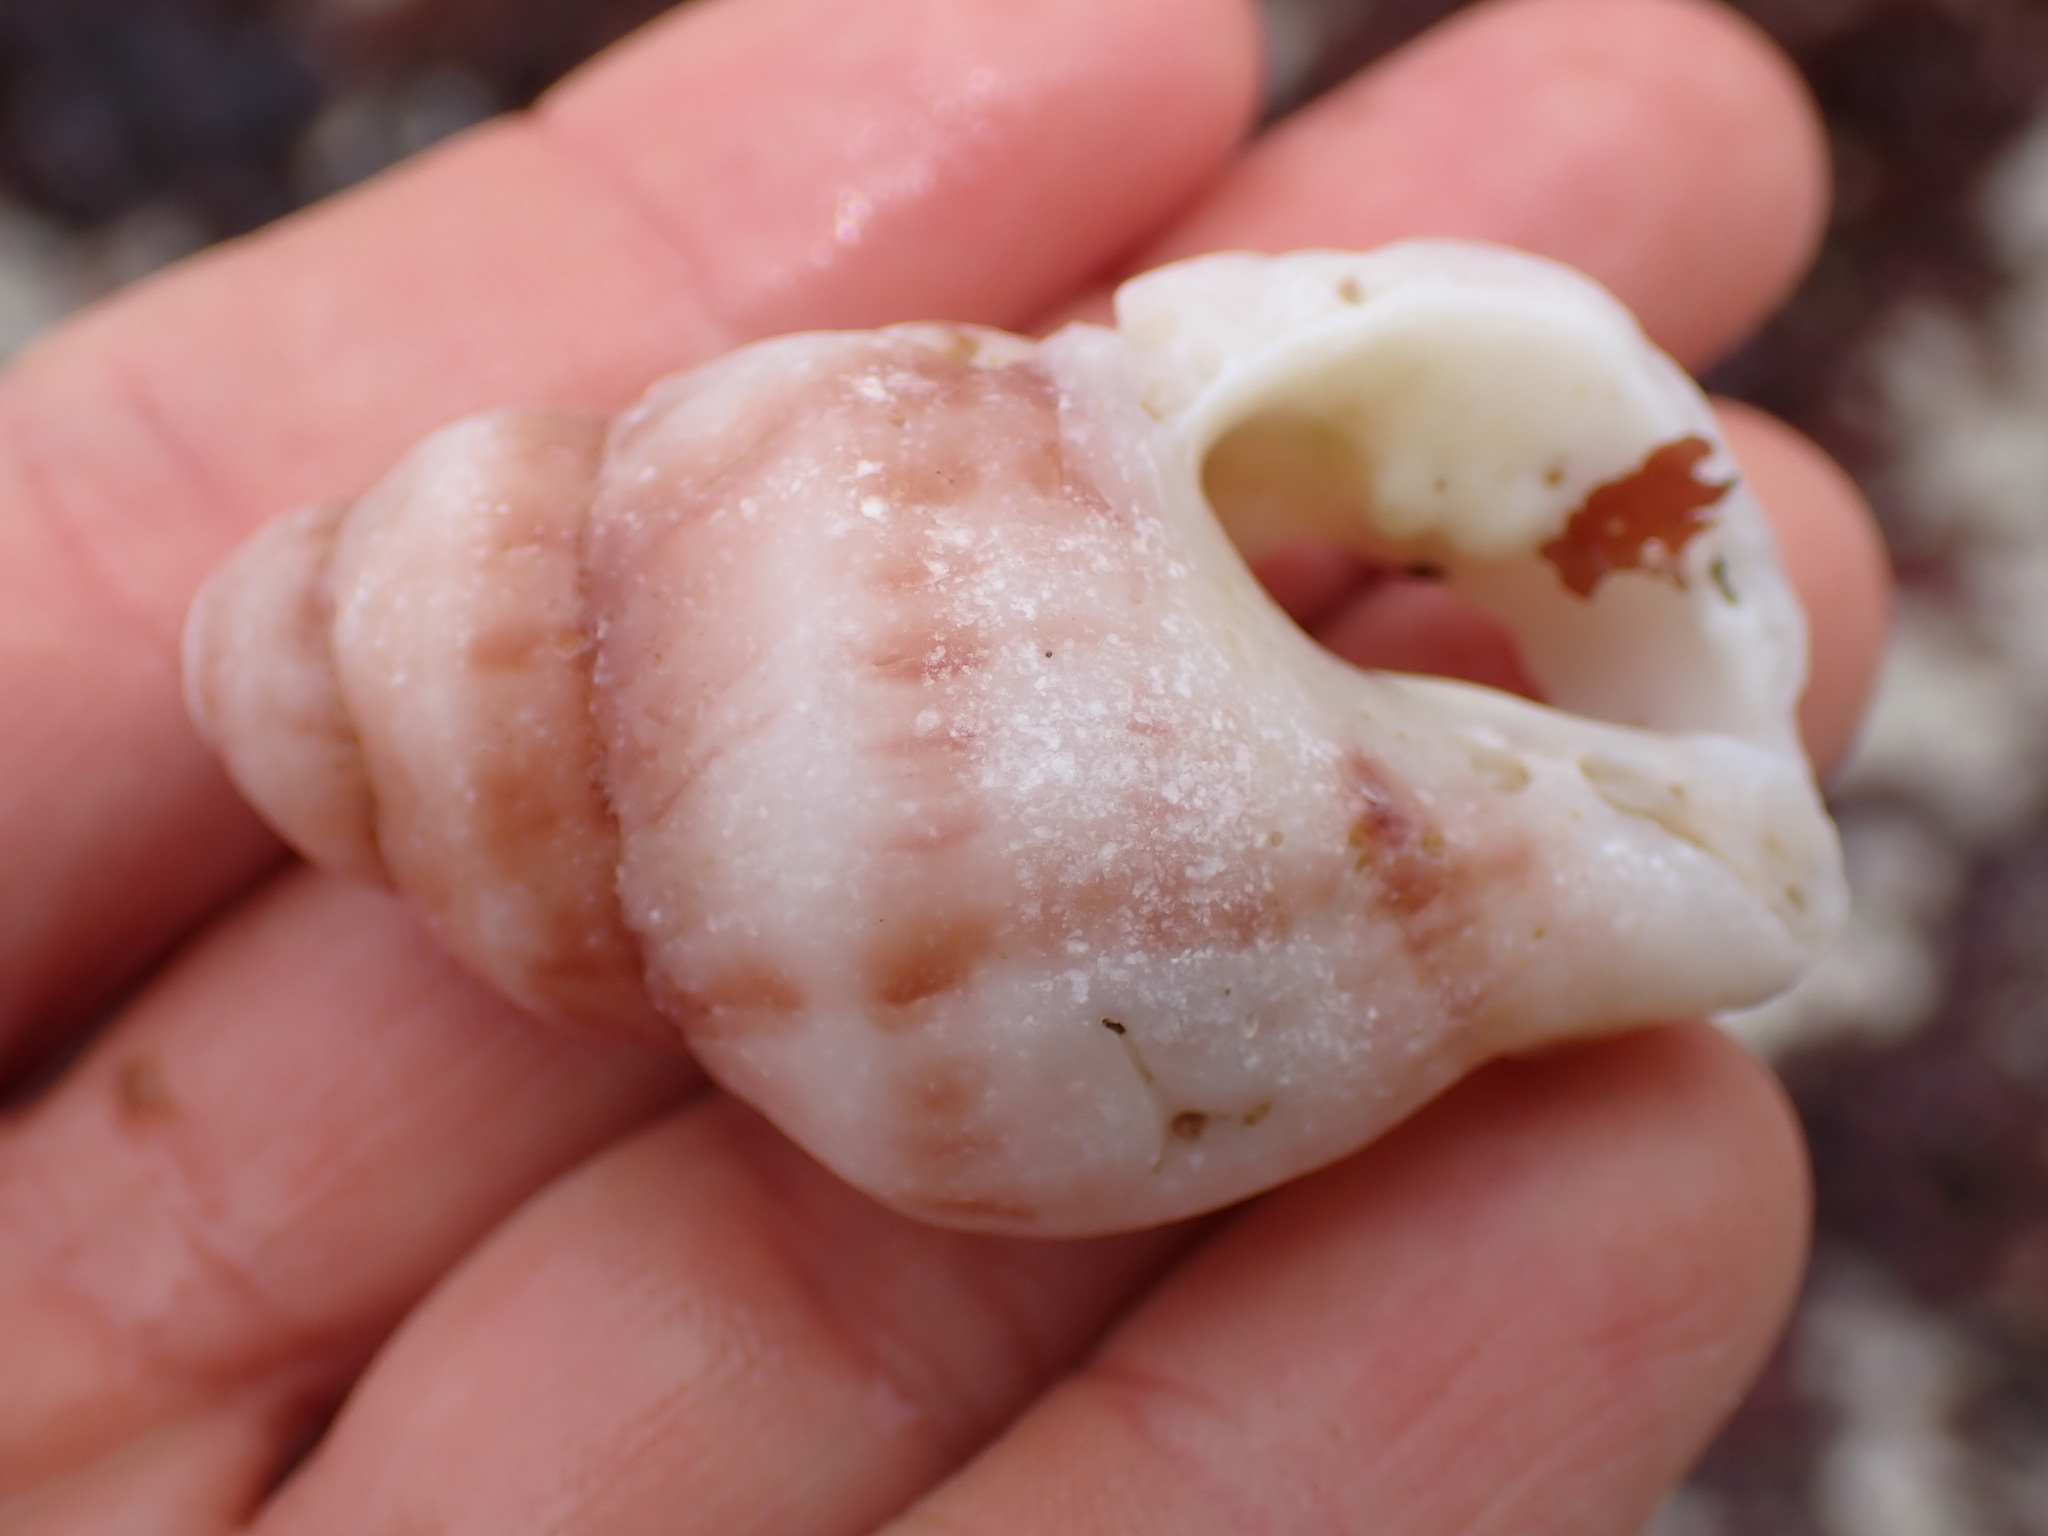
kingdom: Animalia
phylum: Mollusca
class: Gastropoda
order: Neogastropoda
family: Muricidae
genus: Nucella
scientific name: Nucella lamellosa
